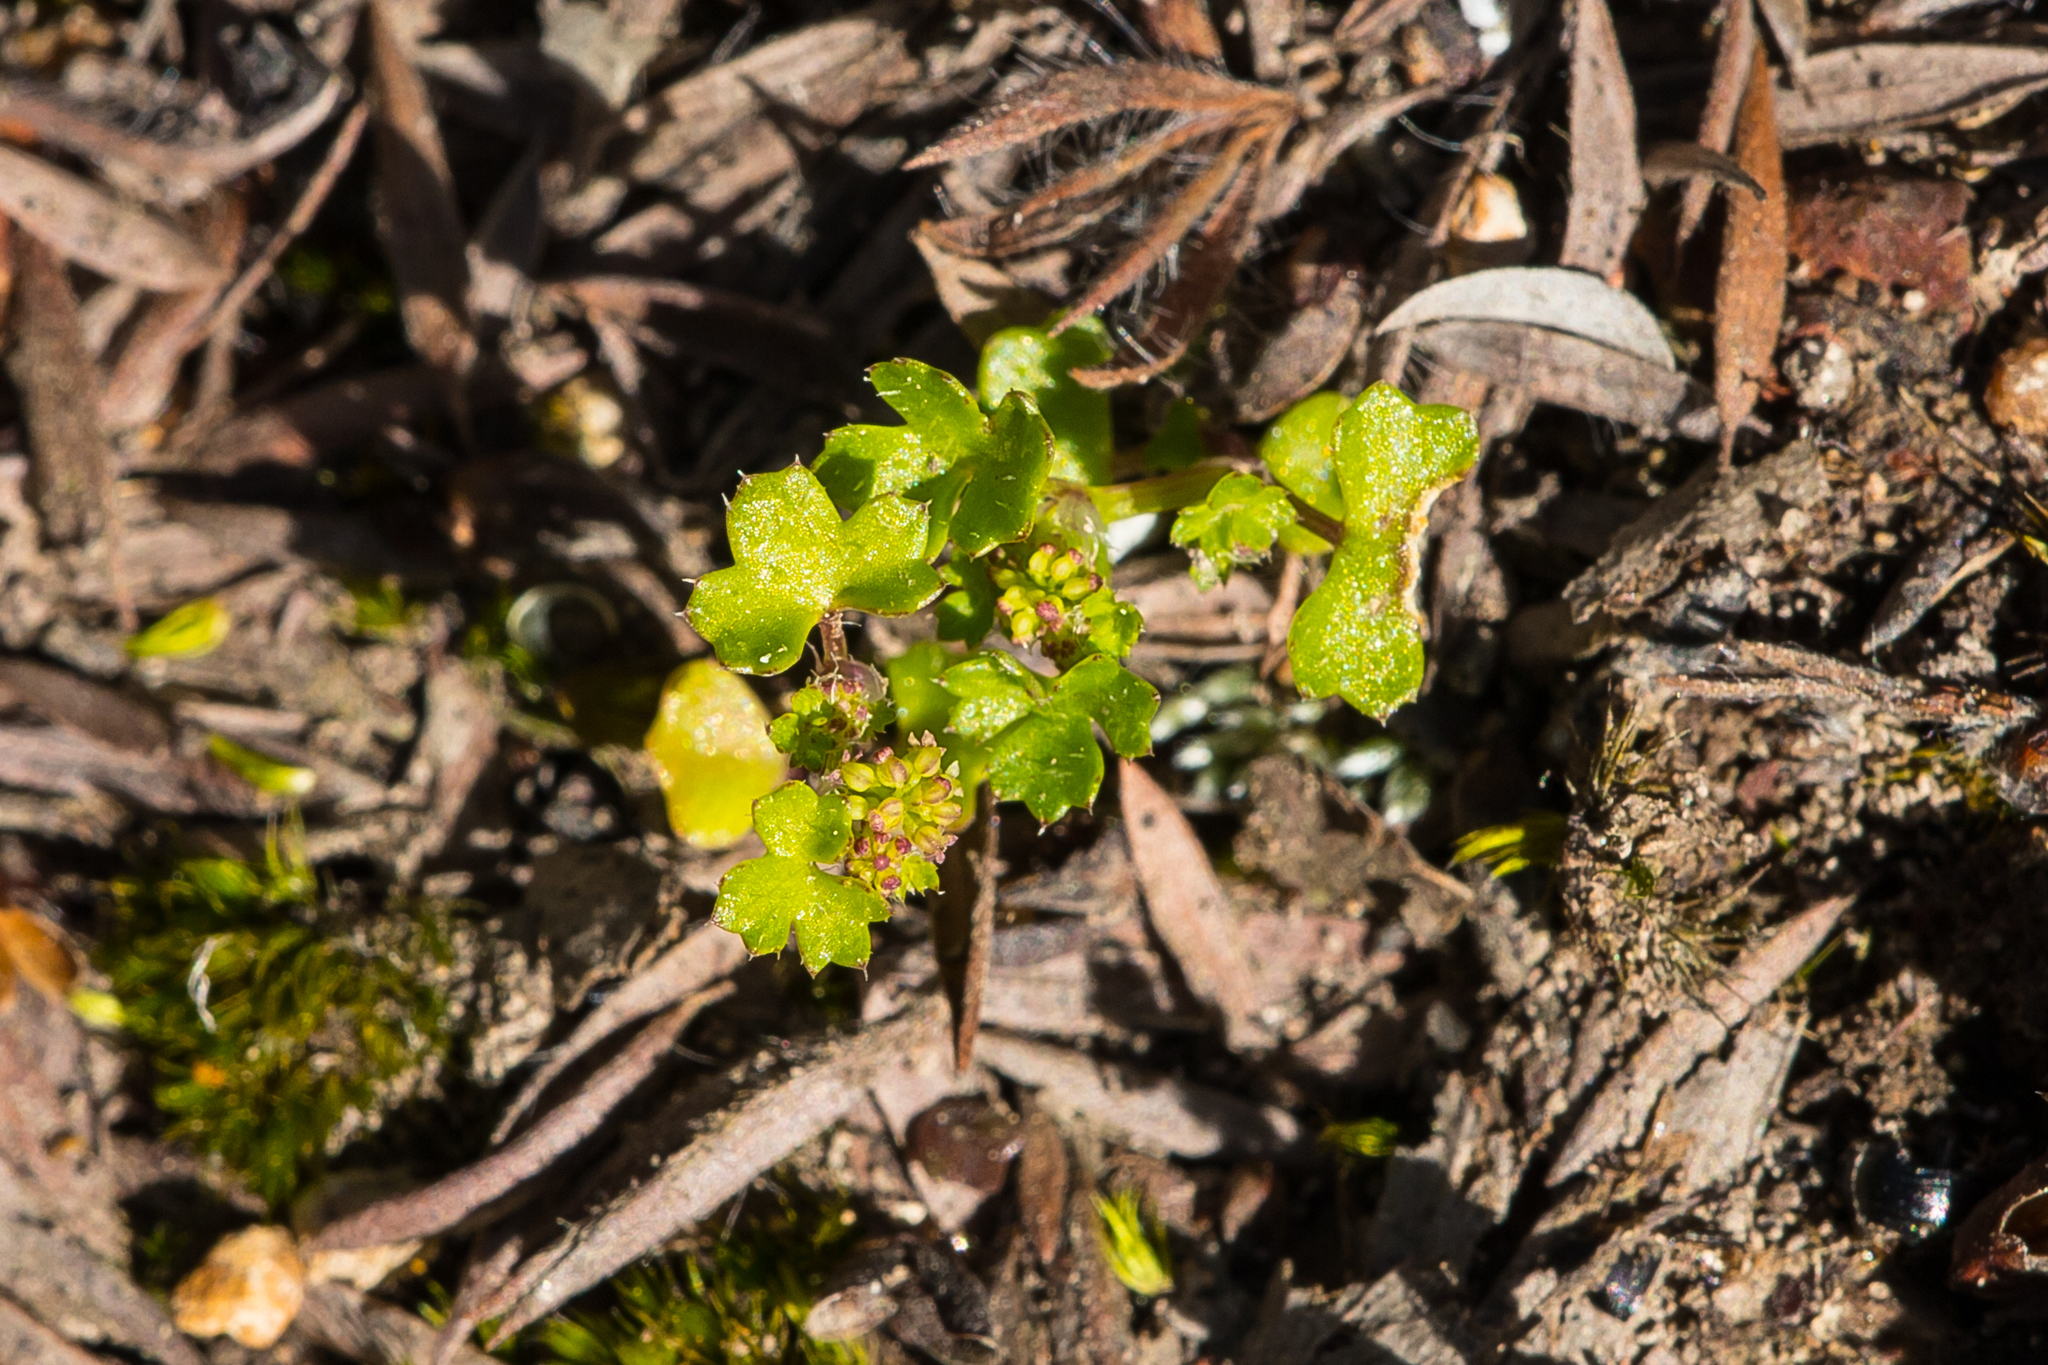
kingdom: Plantae
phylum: Tracheophyta
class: Magnoliopsida
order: Apiales
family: Araliaceae
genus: Hydrocotyle
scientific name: Hydrocotyle callicarpa
